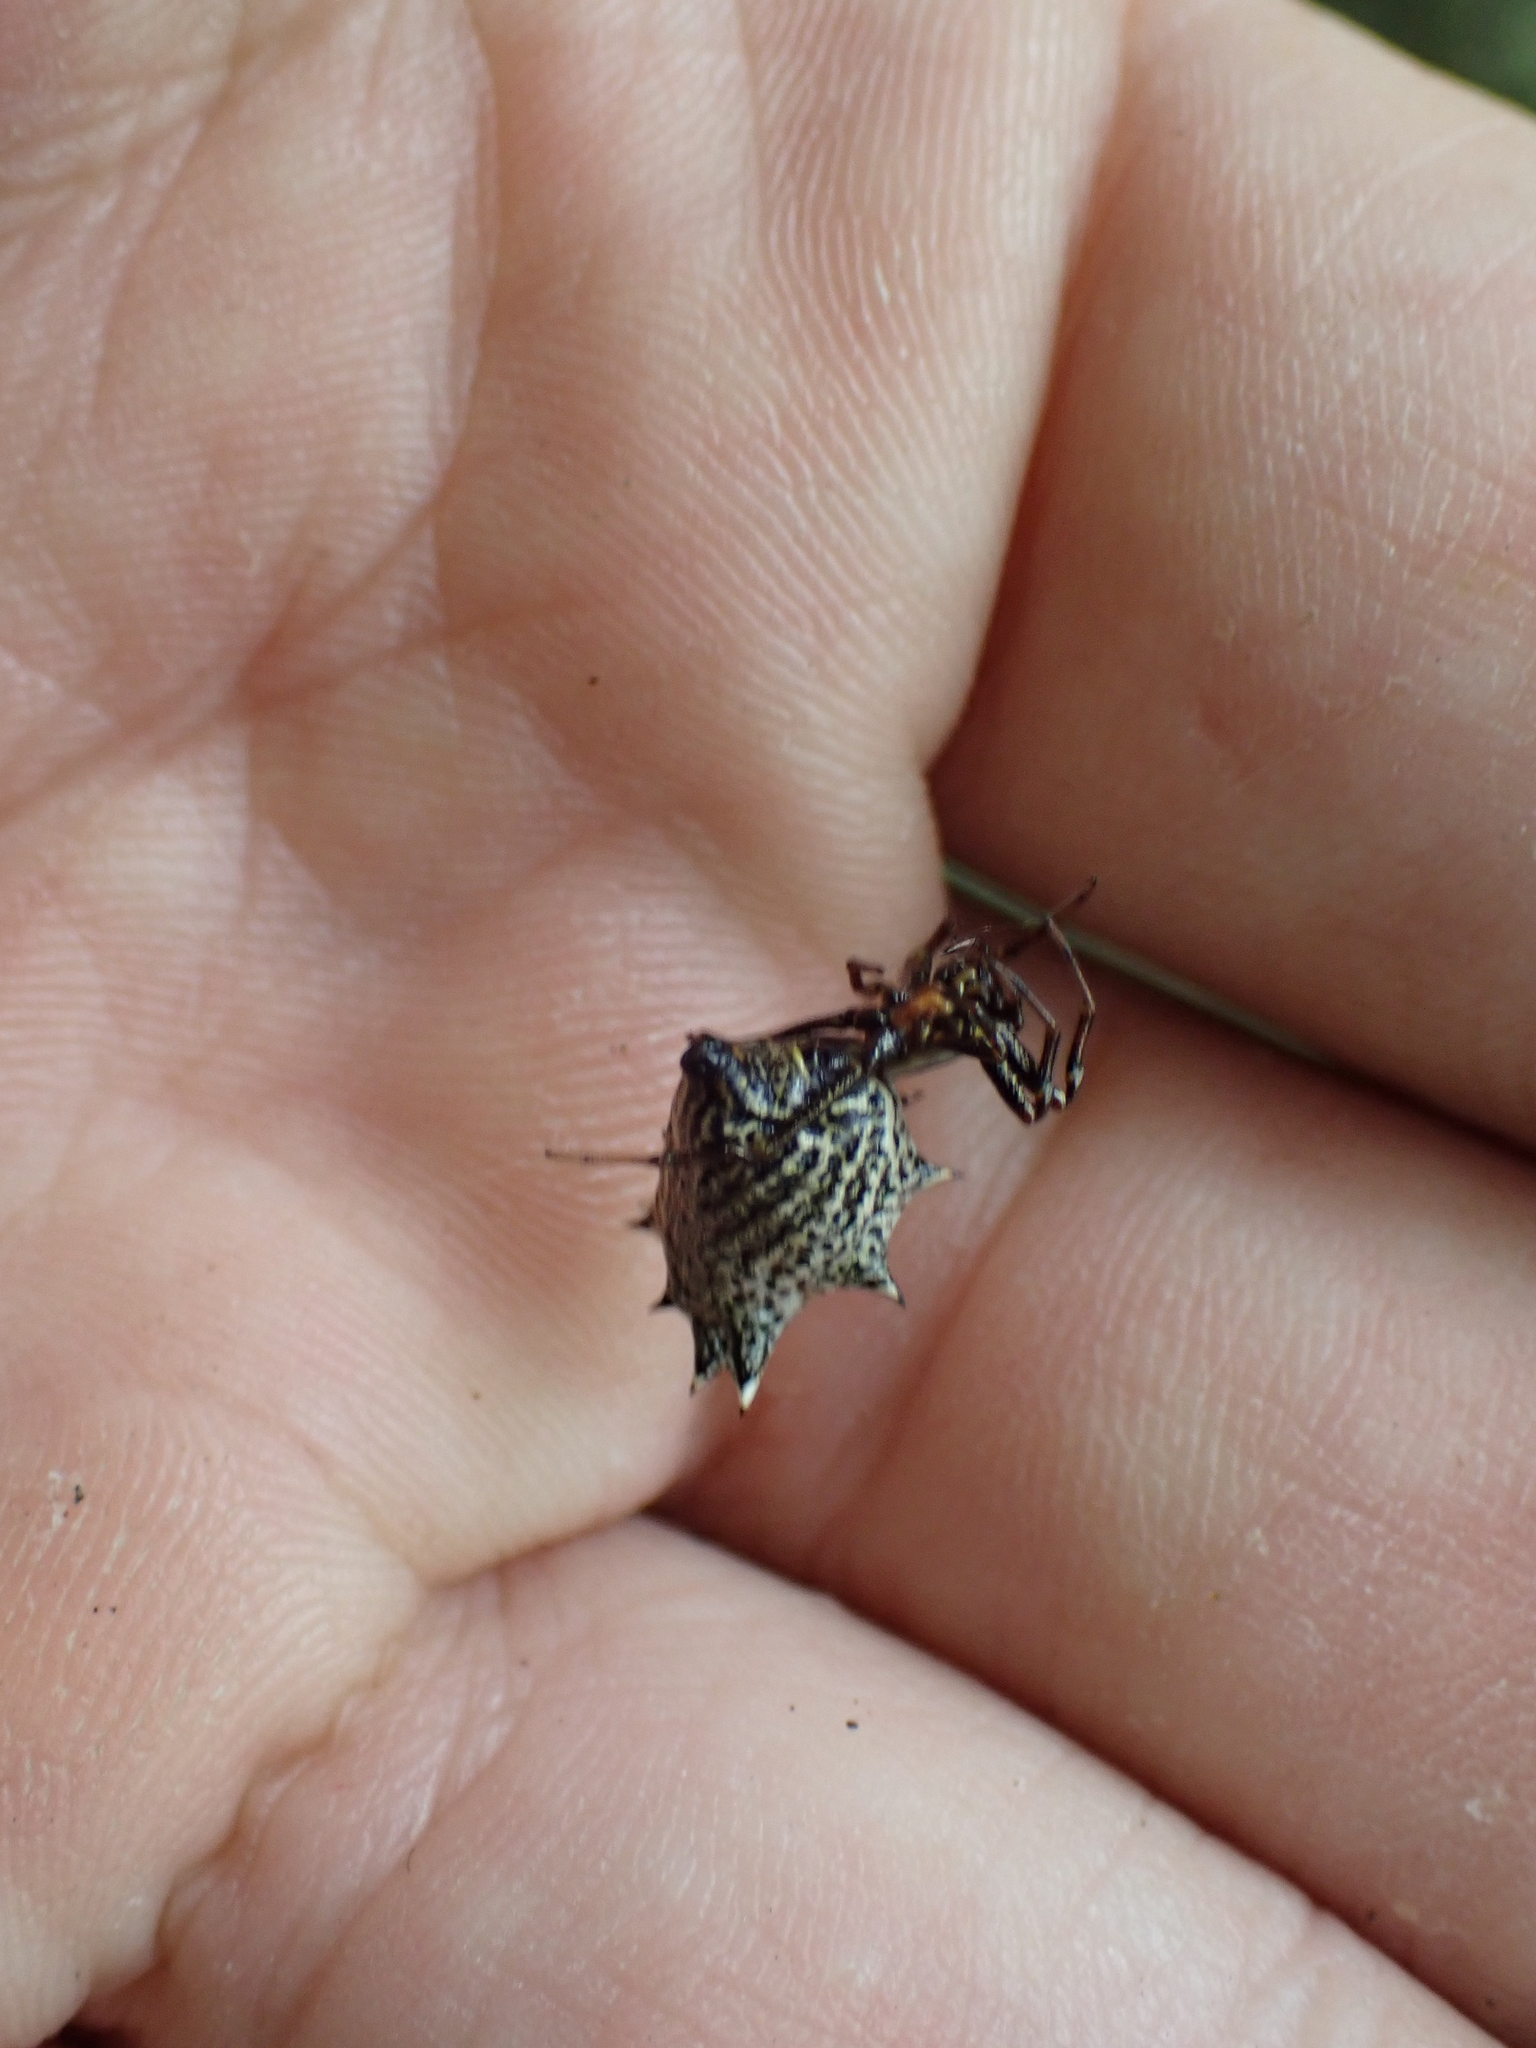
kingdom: Animalia
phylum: Arthropoda
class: Arachnida
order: Araneae
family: Araneidae
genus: Micrathena
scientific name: Micrathena gracilis
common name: Orb weavers
